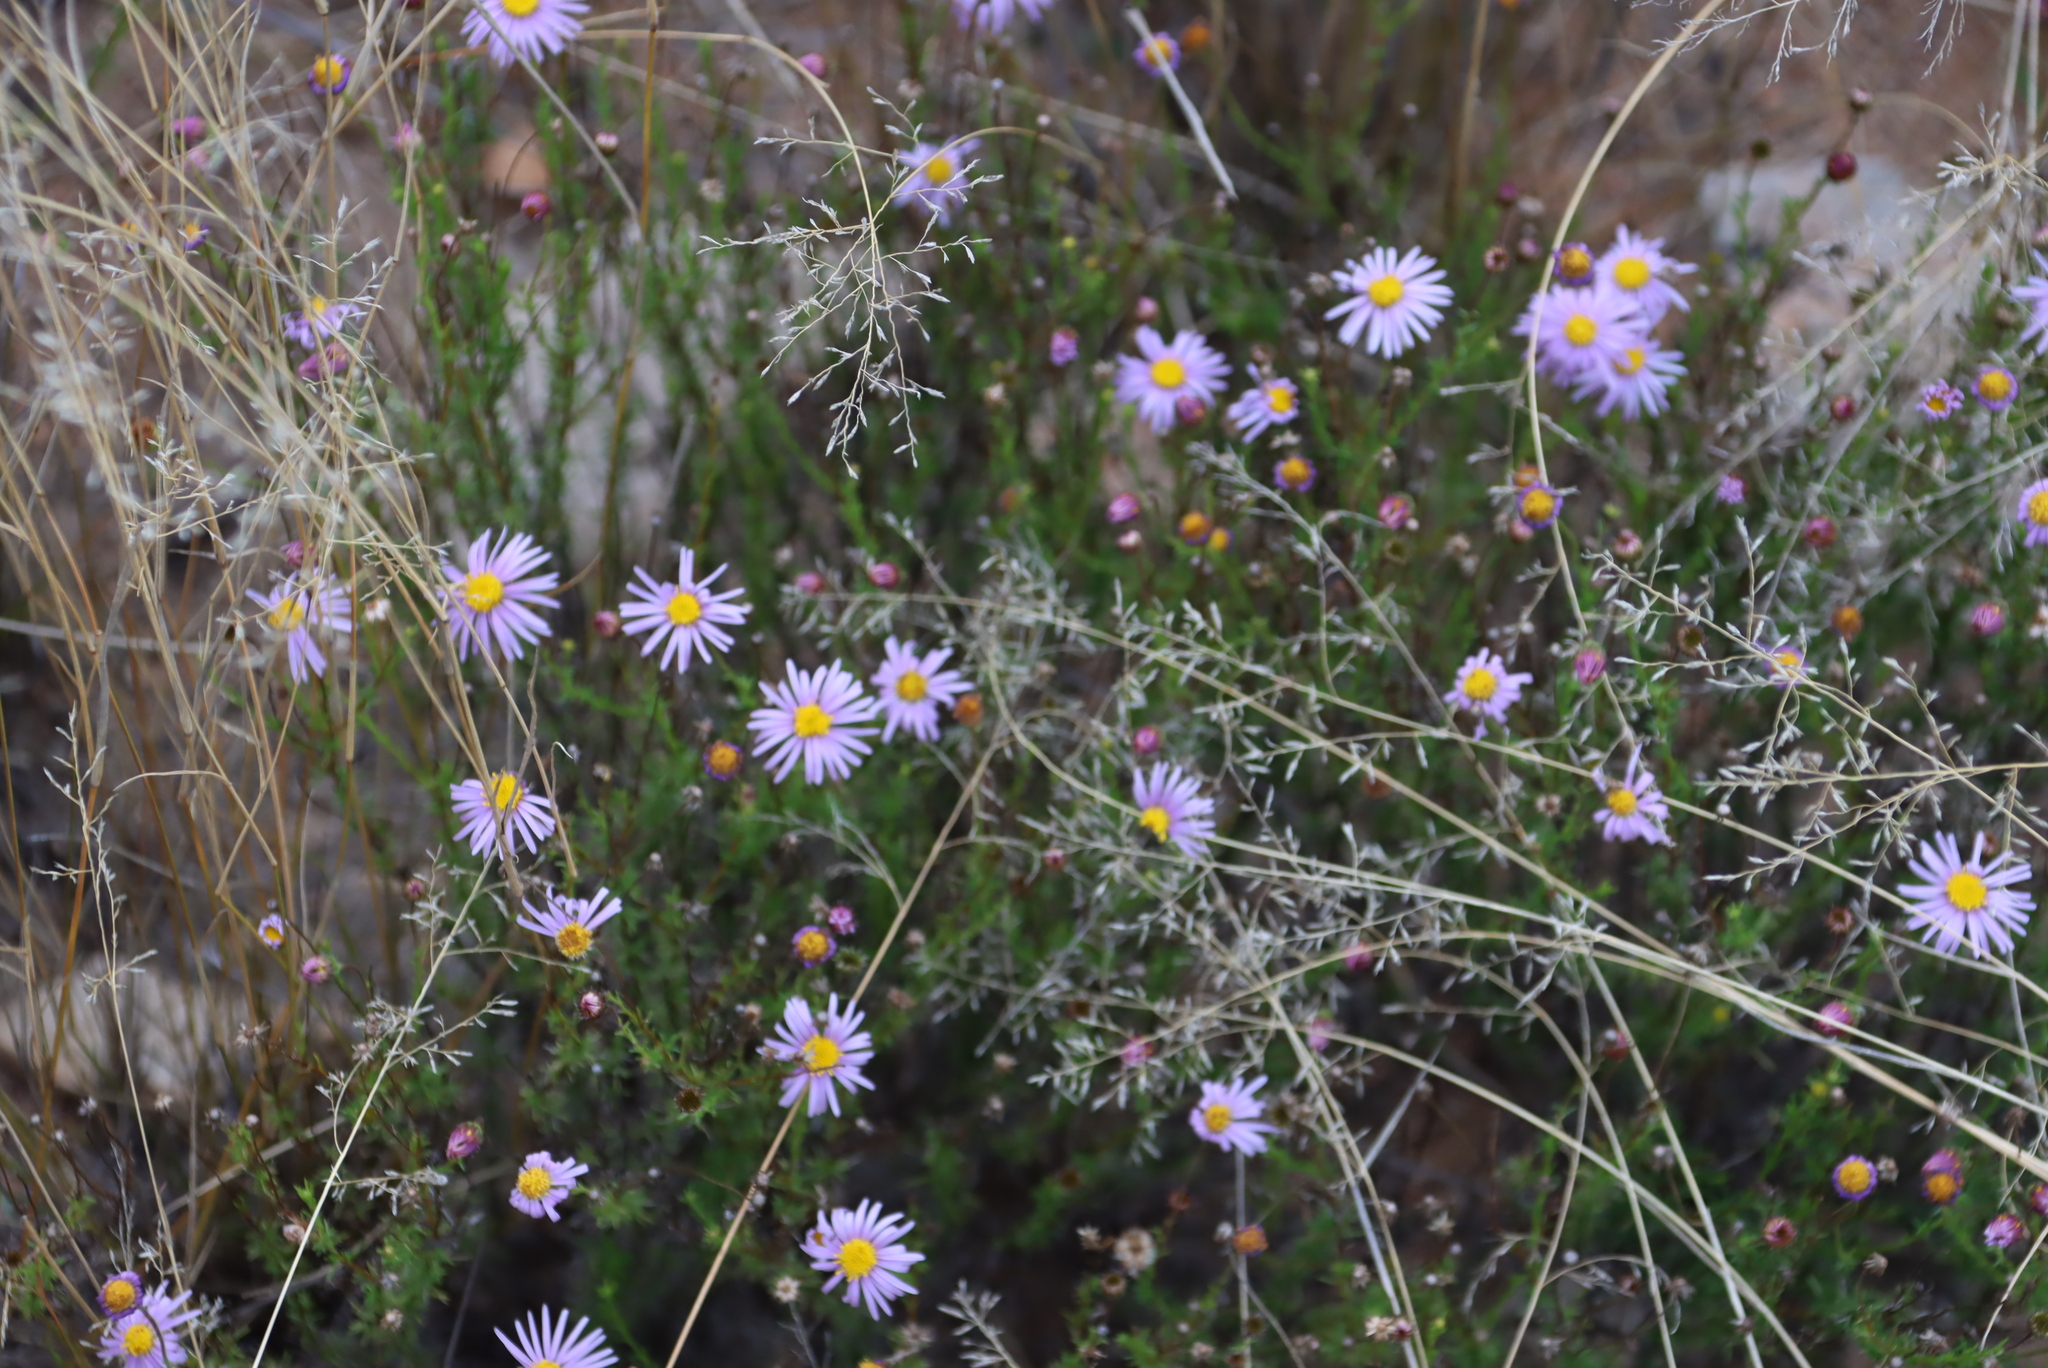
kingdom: Plantae
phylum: Tracheophyta
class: Magnoliopsida
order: Asterales
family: Asteraceae
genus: Felicia
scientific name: Felicia muricata
